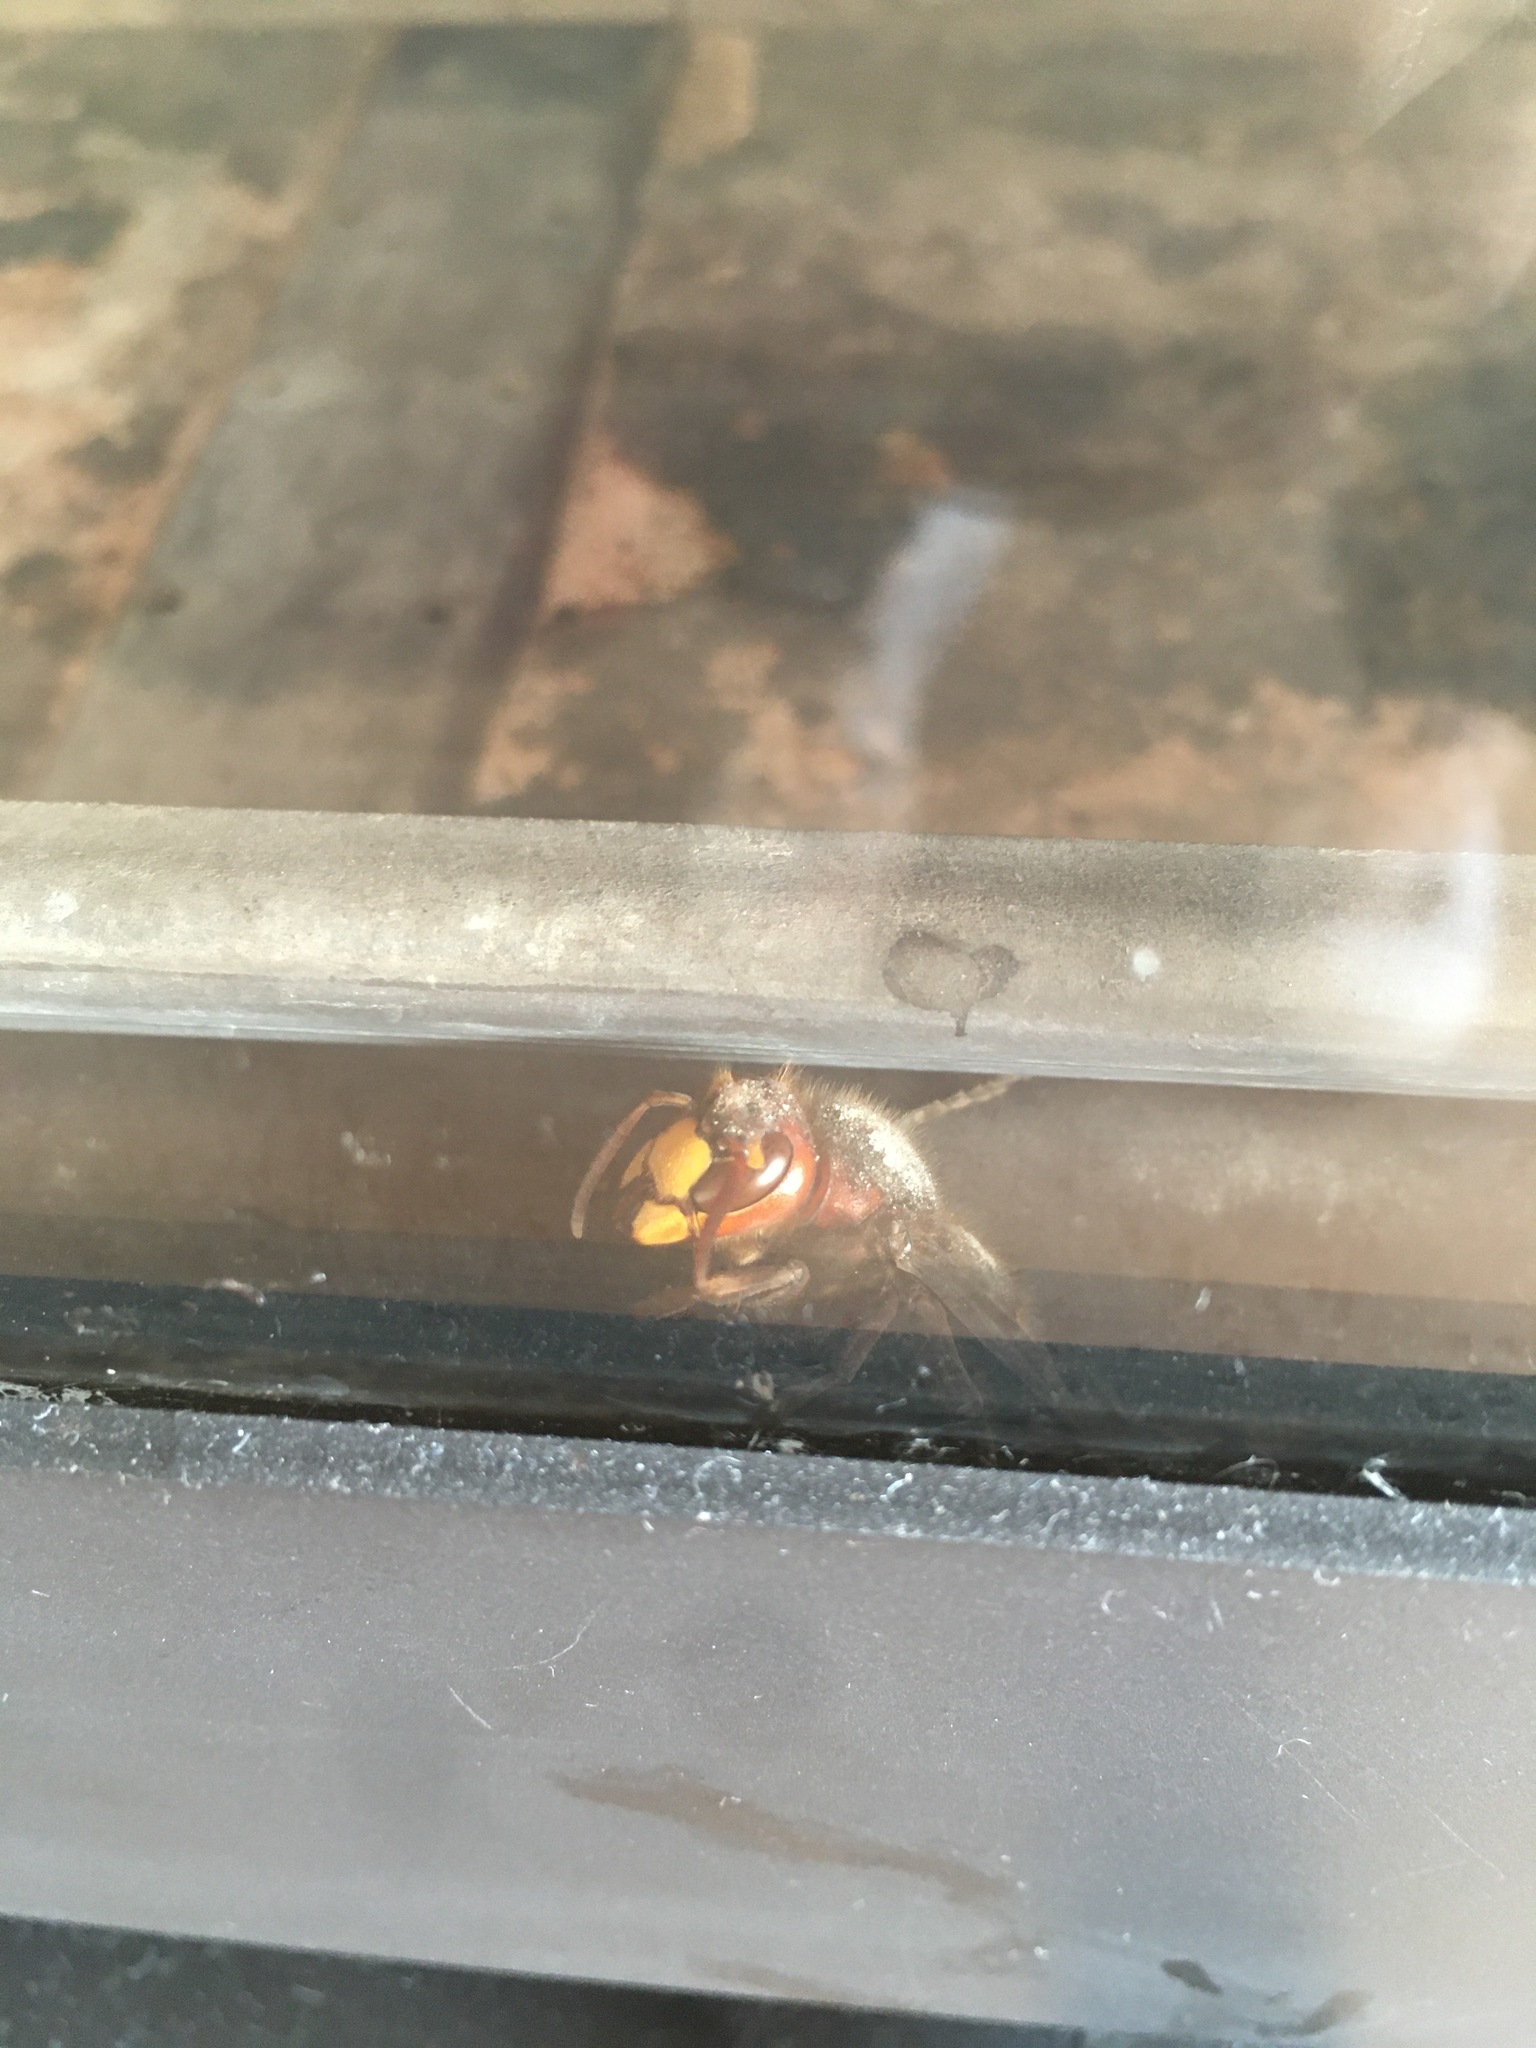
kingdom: Animalia
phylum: Arthropoda
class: Insecta
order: Hymenoptera
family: Vespidae
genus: Vespa
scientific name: Vespa crabro
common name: Hornet
